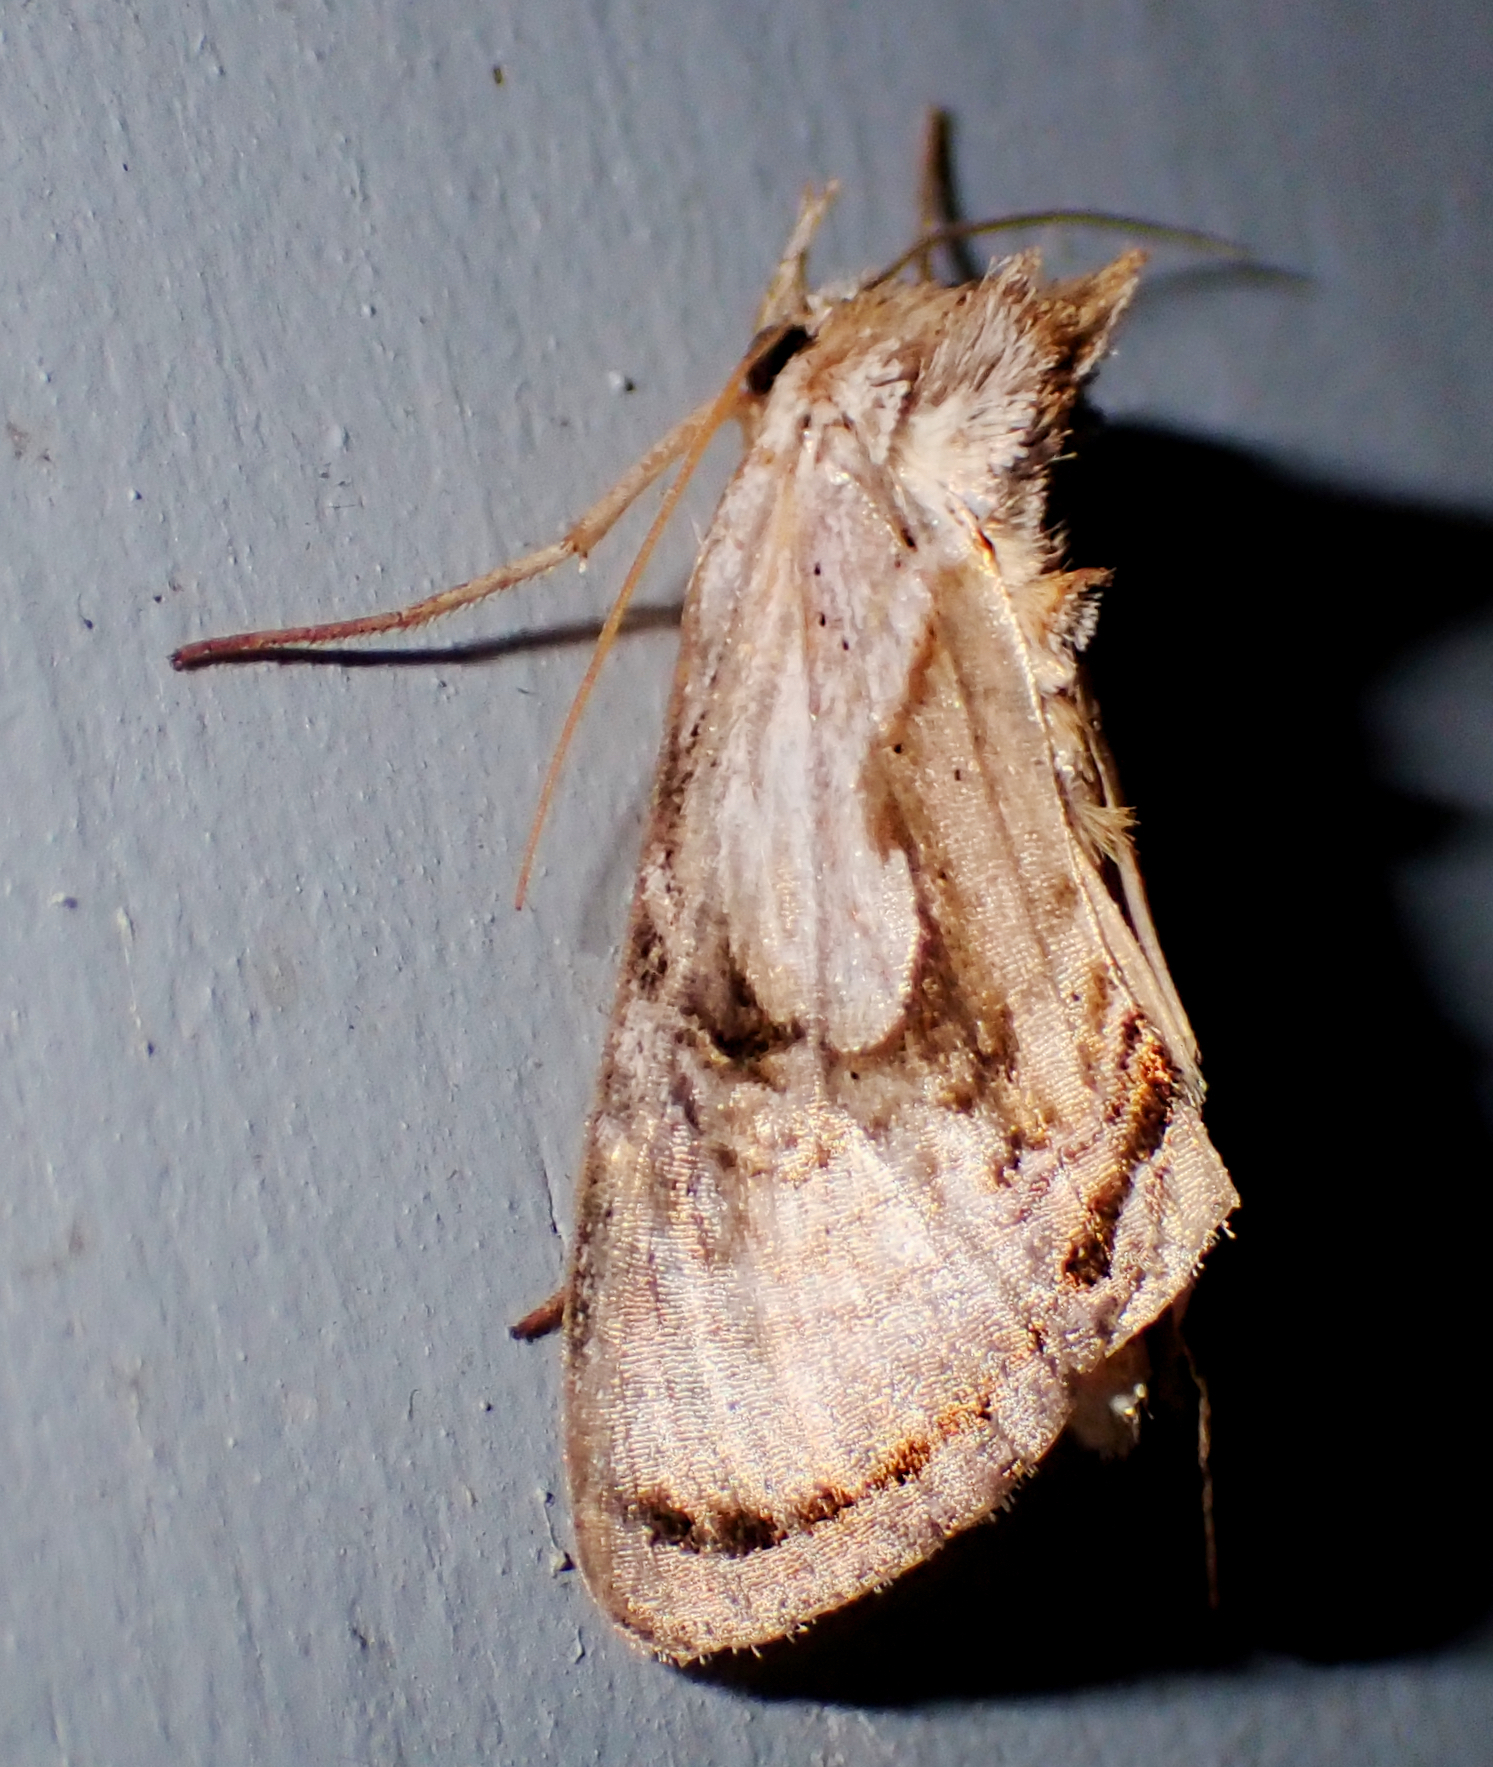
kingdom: Animalia
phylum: Arthropoda
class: Insecta
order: Lepidoptera
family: Noctuidae
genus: Chrysanympha
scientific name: Chrysanympha formosa
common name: Formosa looper moth
